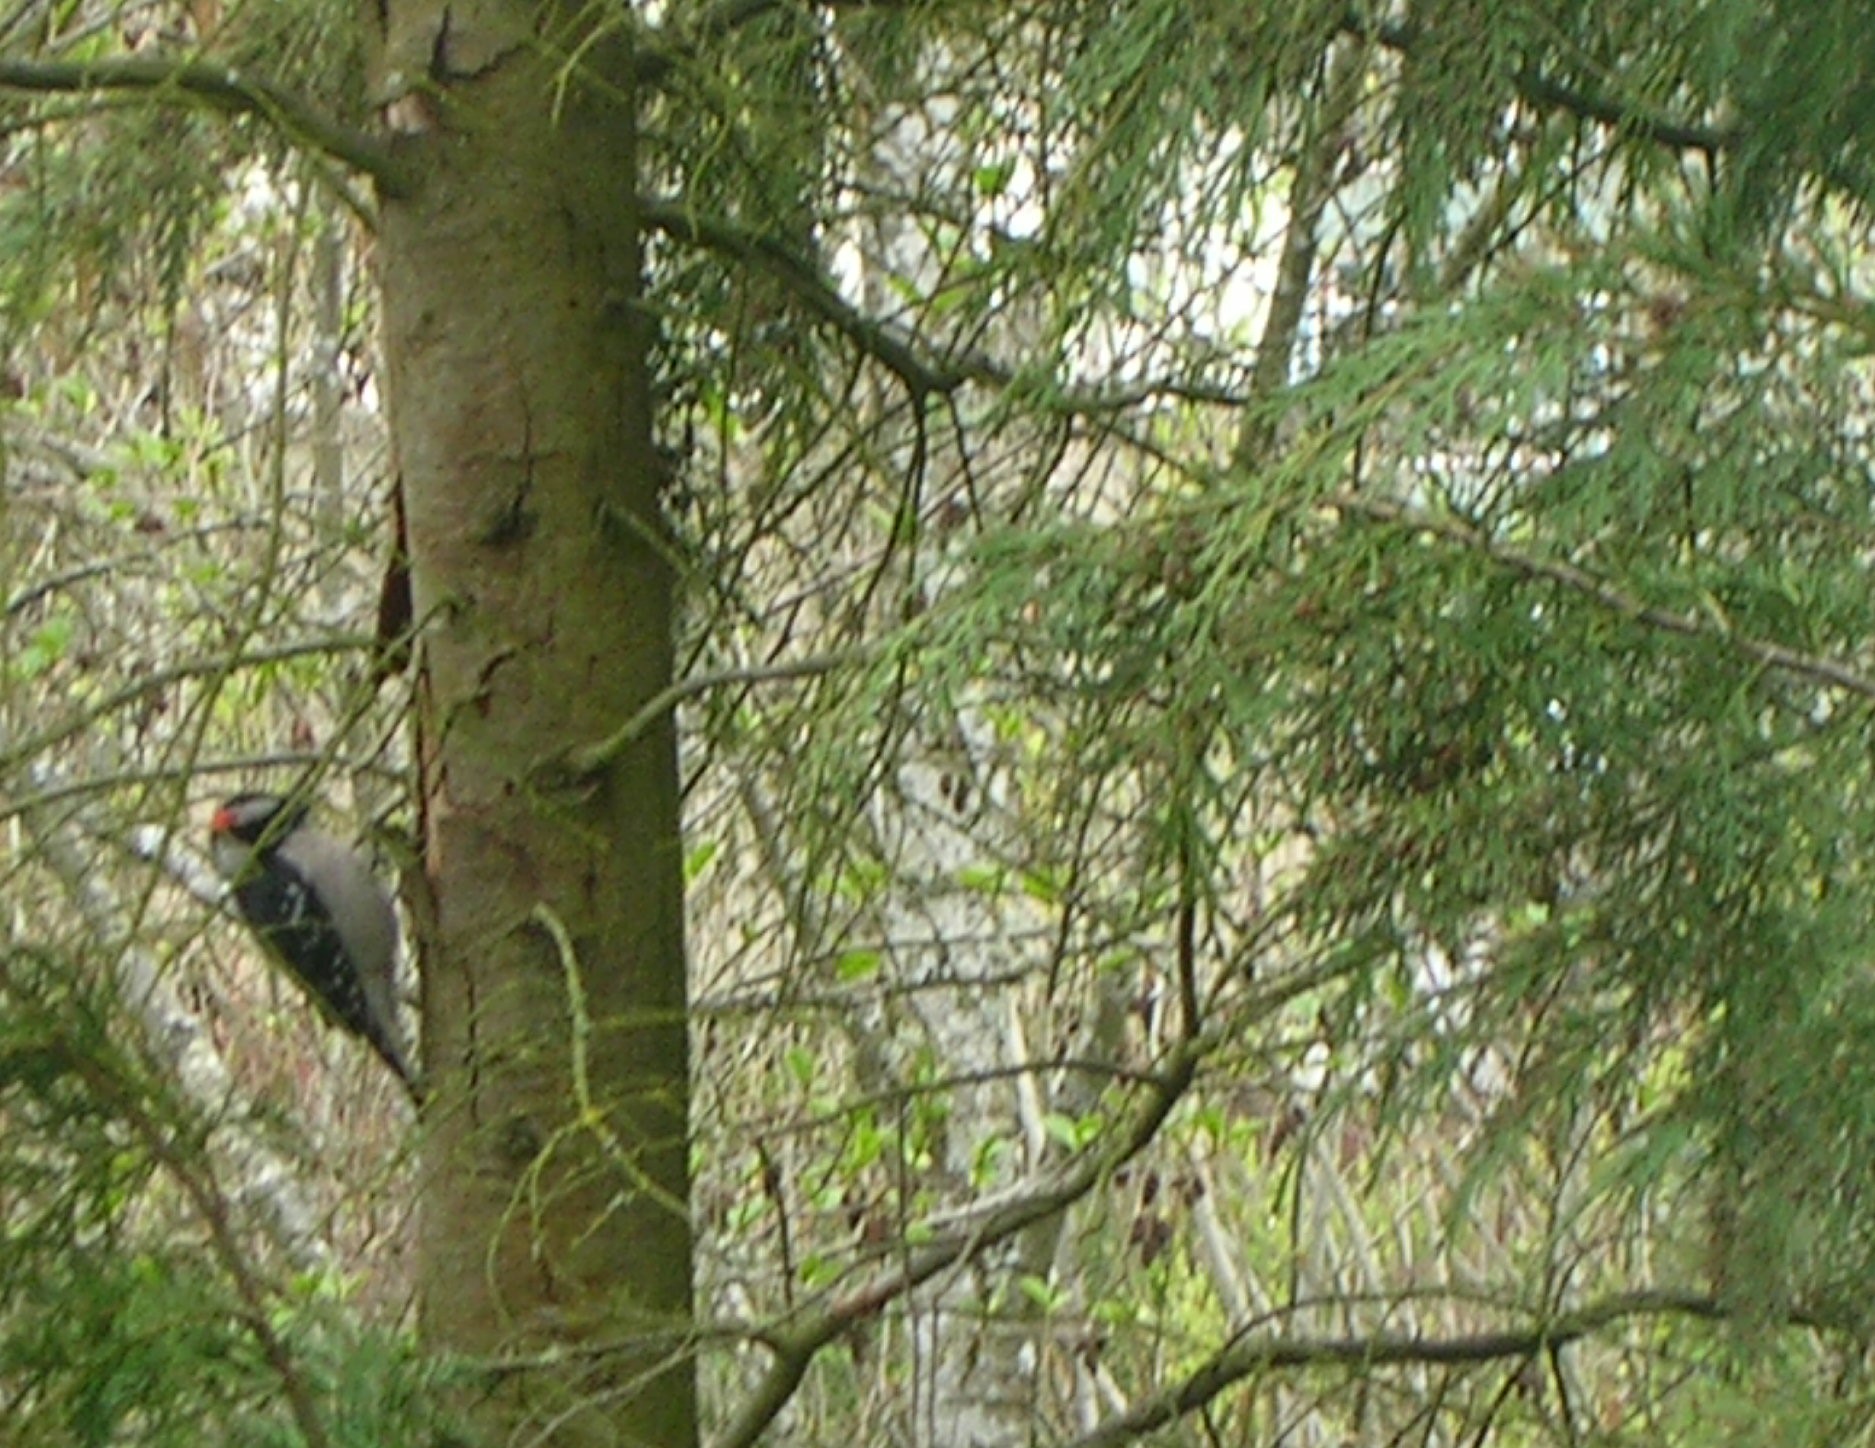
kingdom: Animalia
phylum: Chordata
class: Aves
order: Piciformes
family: Picidae
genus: Dryobates
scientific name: Dryobates pubescens
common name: Downy woodpecker
